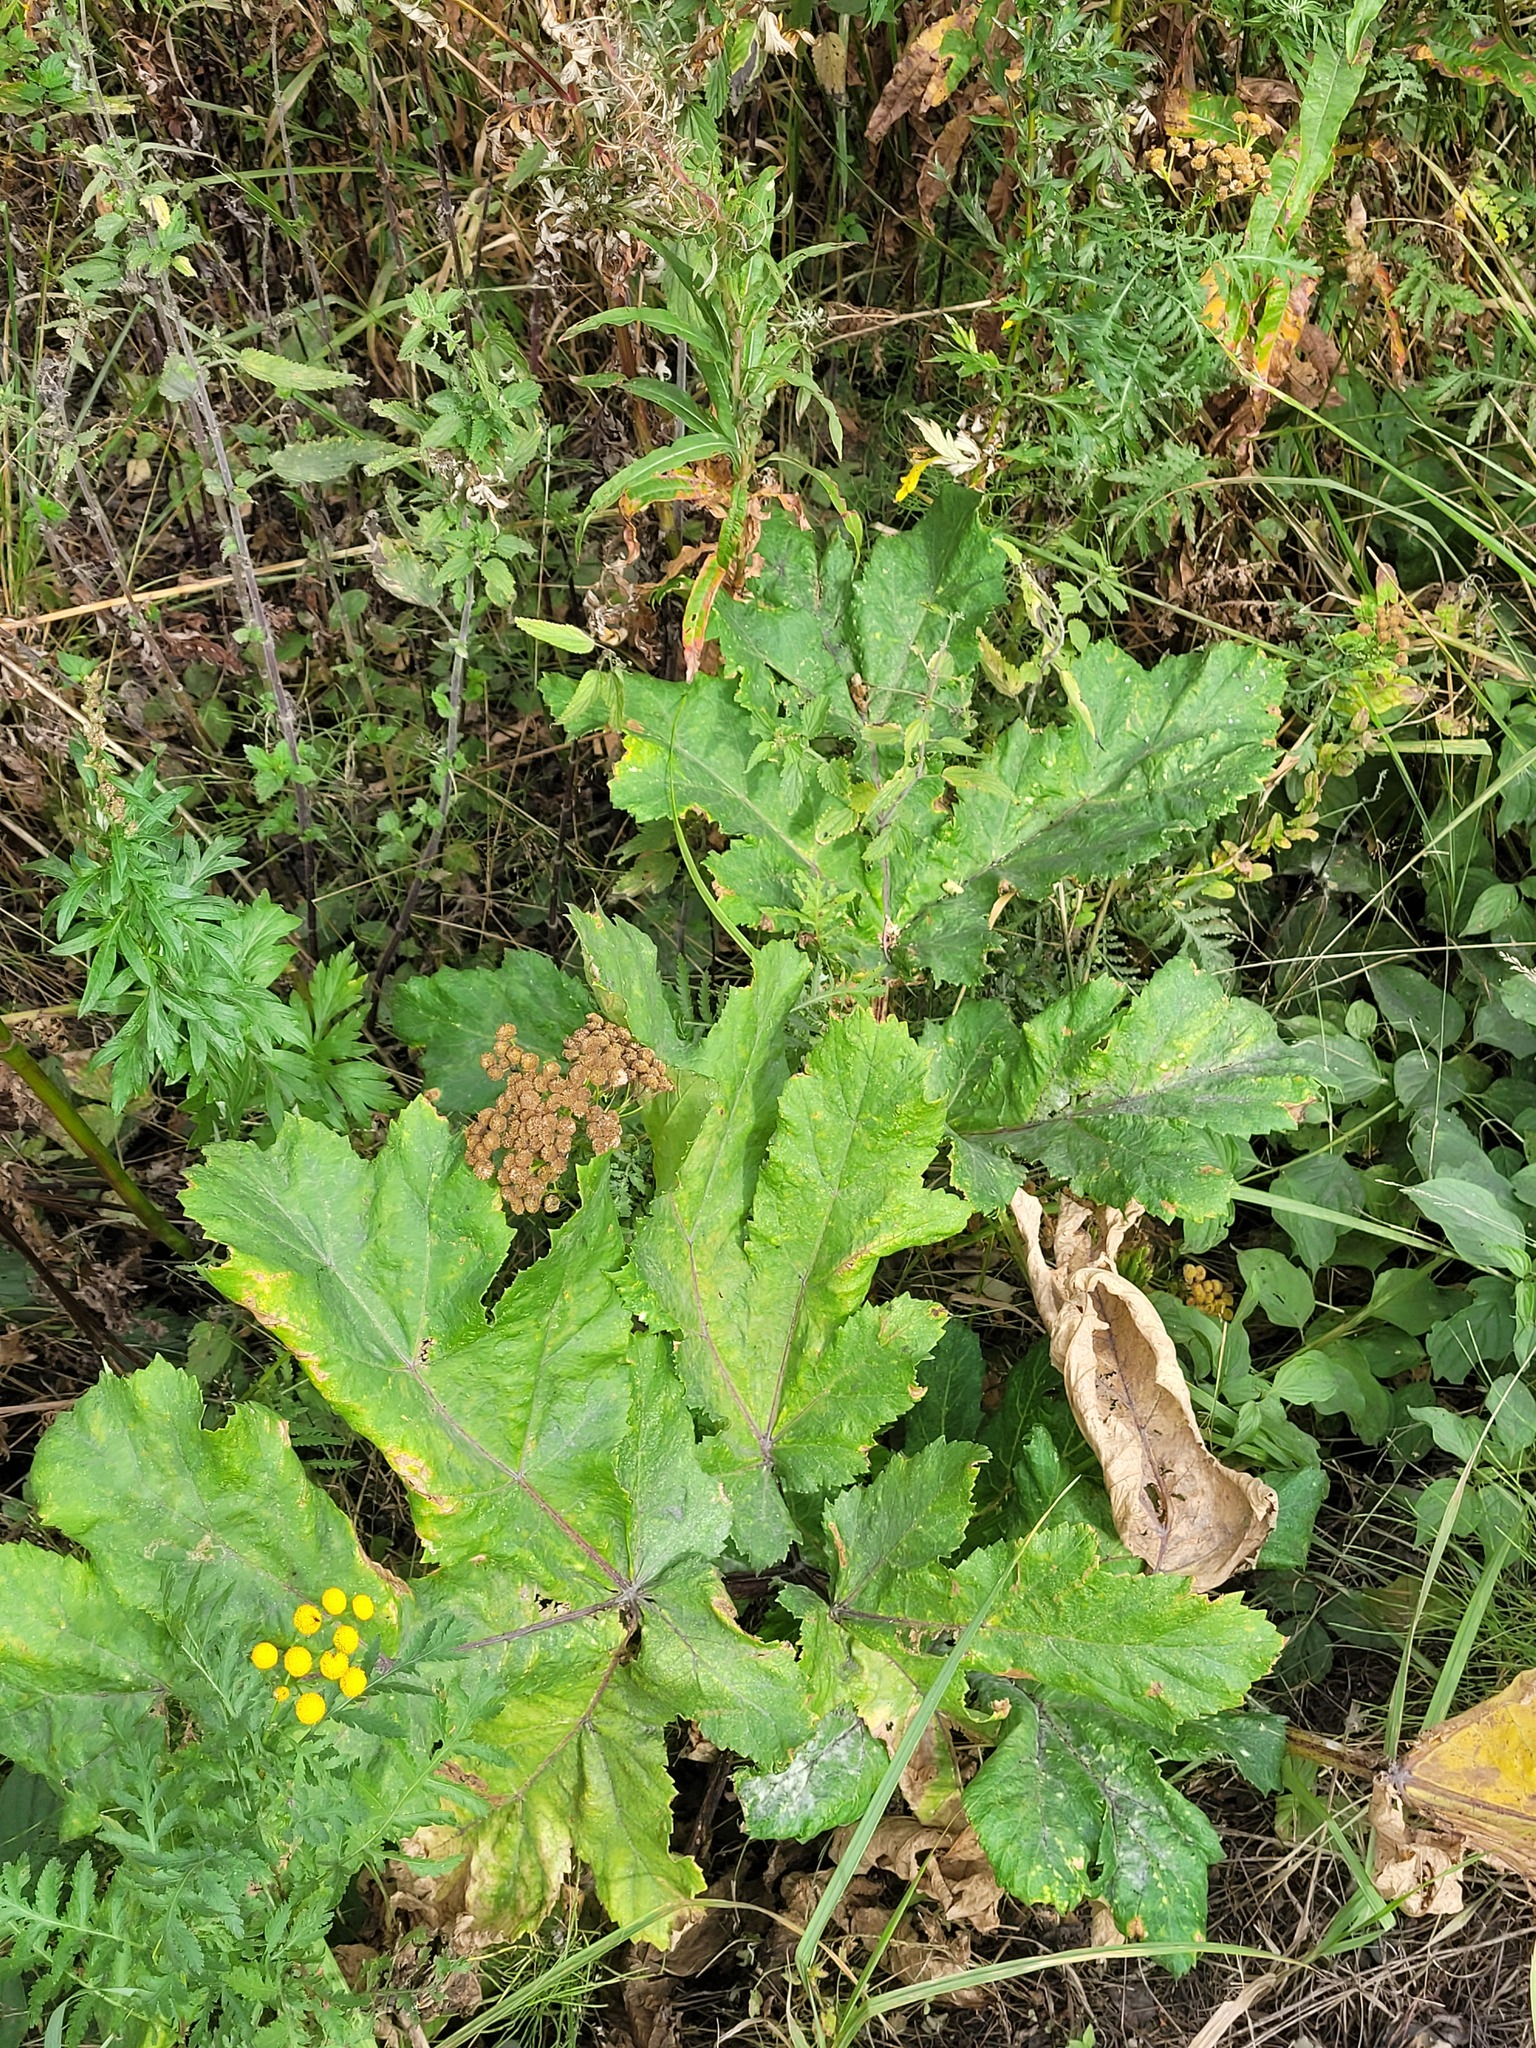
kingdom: Plantae
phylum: Tracheophyta
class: Magnoliopsida
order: Apiales
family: Apiaceae
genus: Heracleum
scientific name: Heracleum sosnowskyi
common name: Sosnowsky's hogweed
